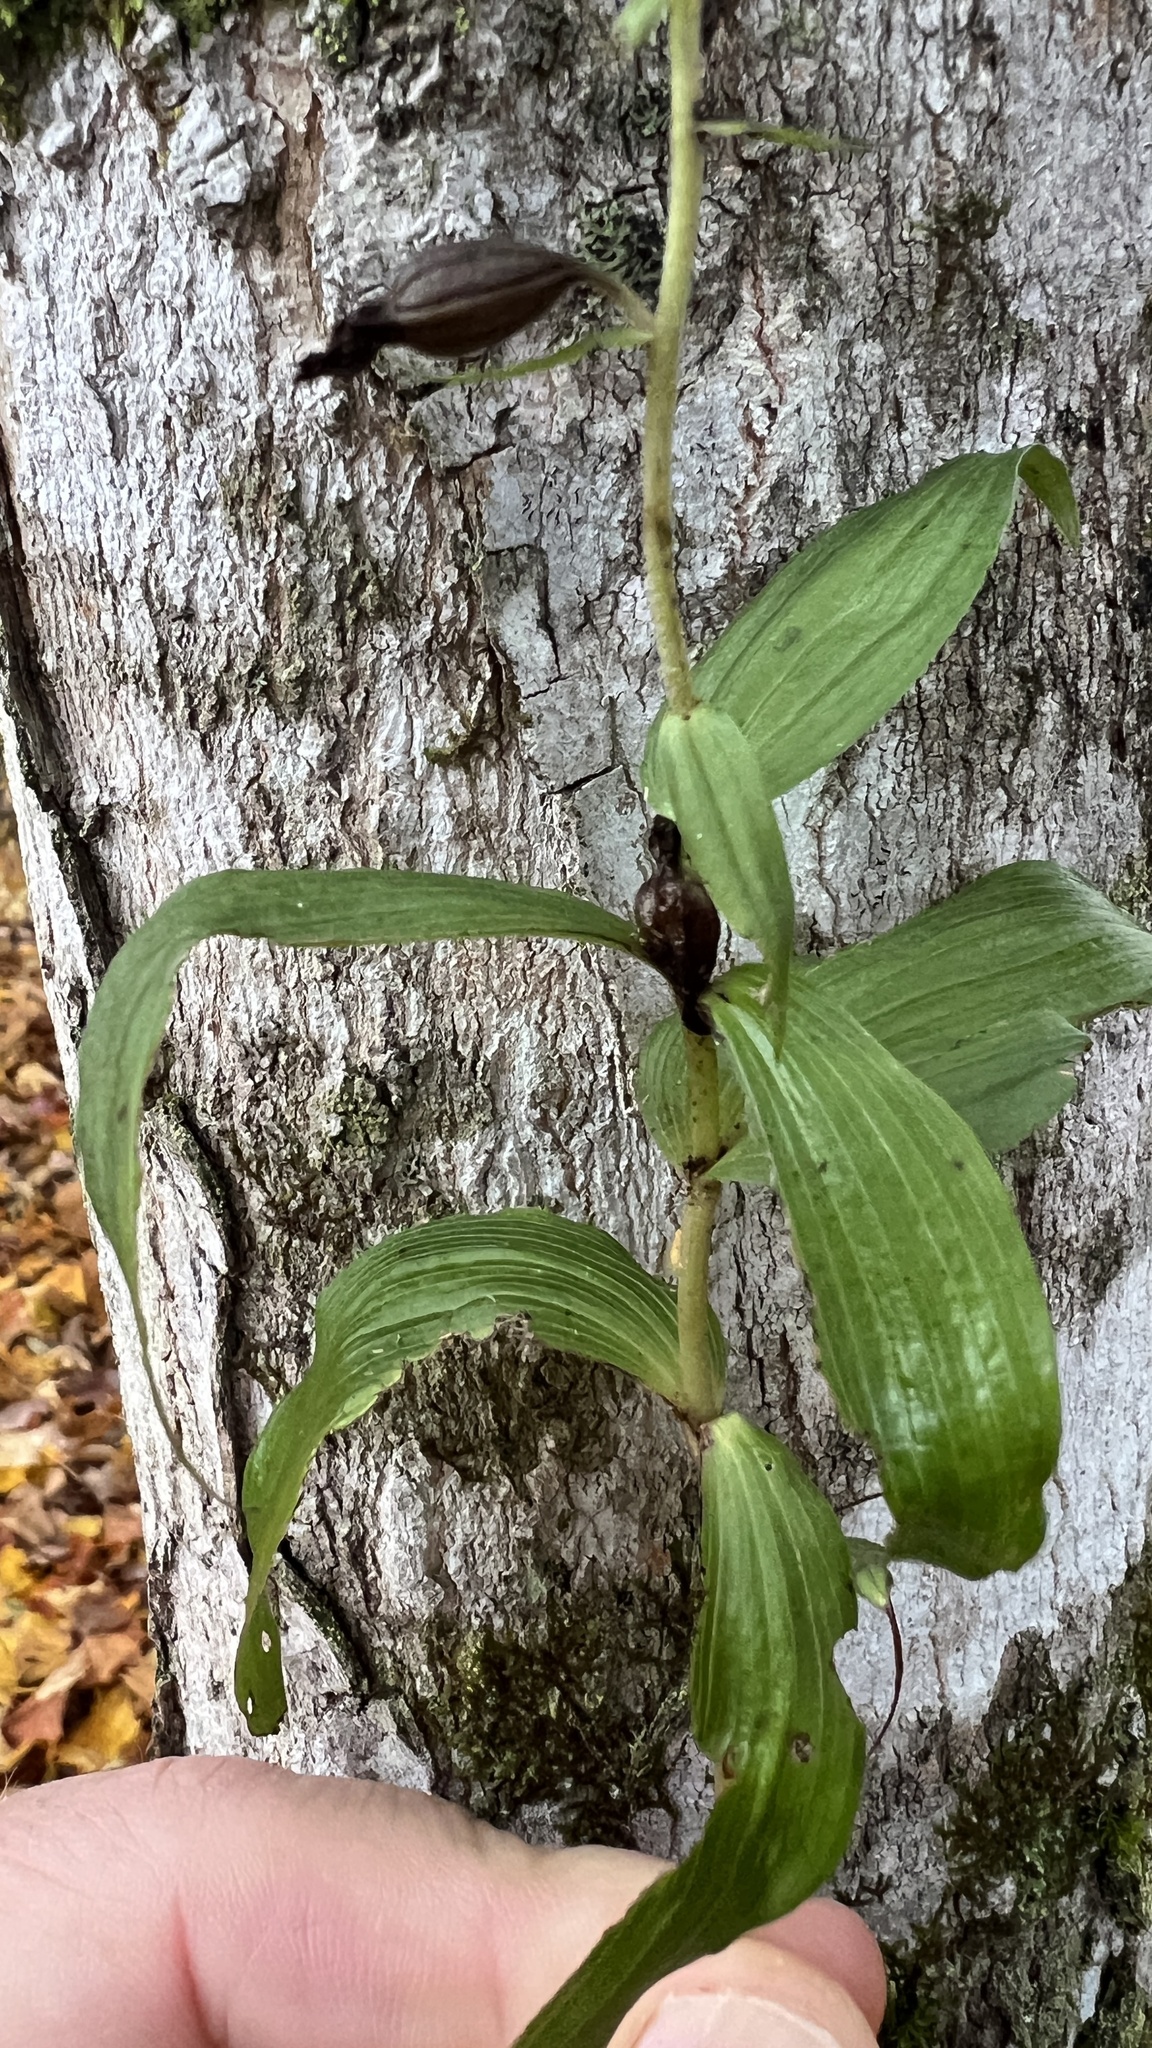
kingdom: Plantae
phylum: Tracheophyta
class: Liliopsida
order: Asparagales
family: Orchidaceae
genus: Epipactis
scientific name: Epipactis helleborine
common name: Broad-leaved helleborine
